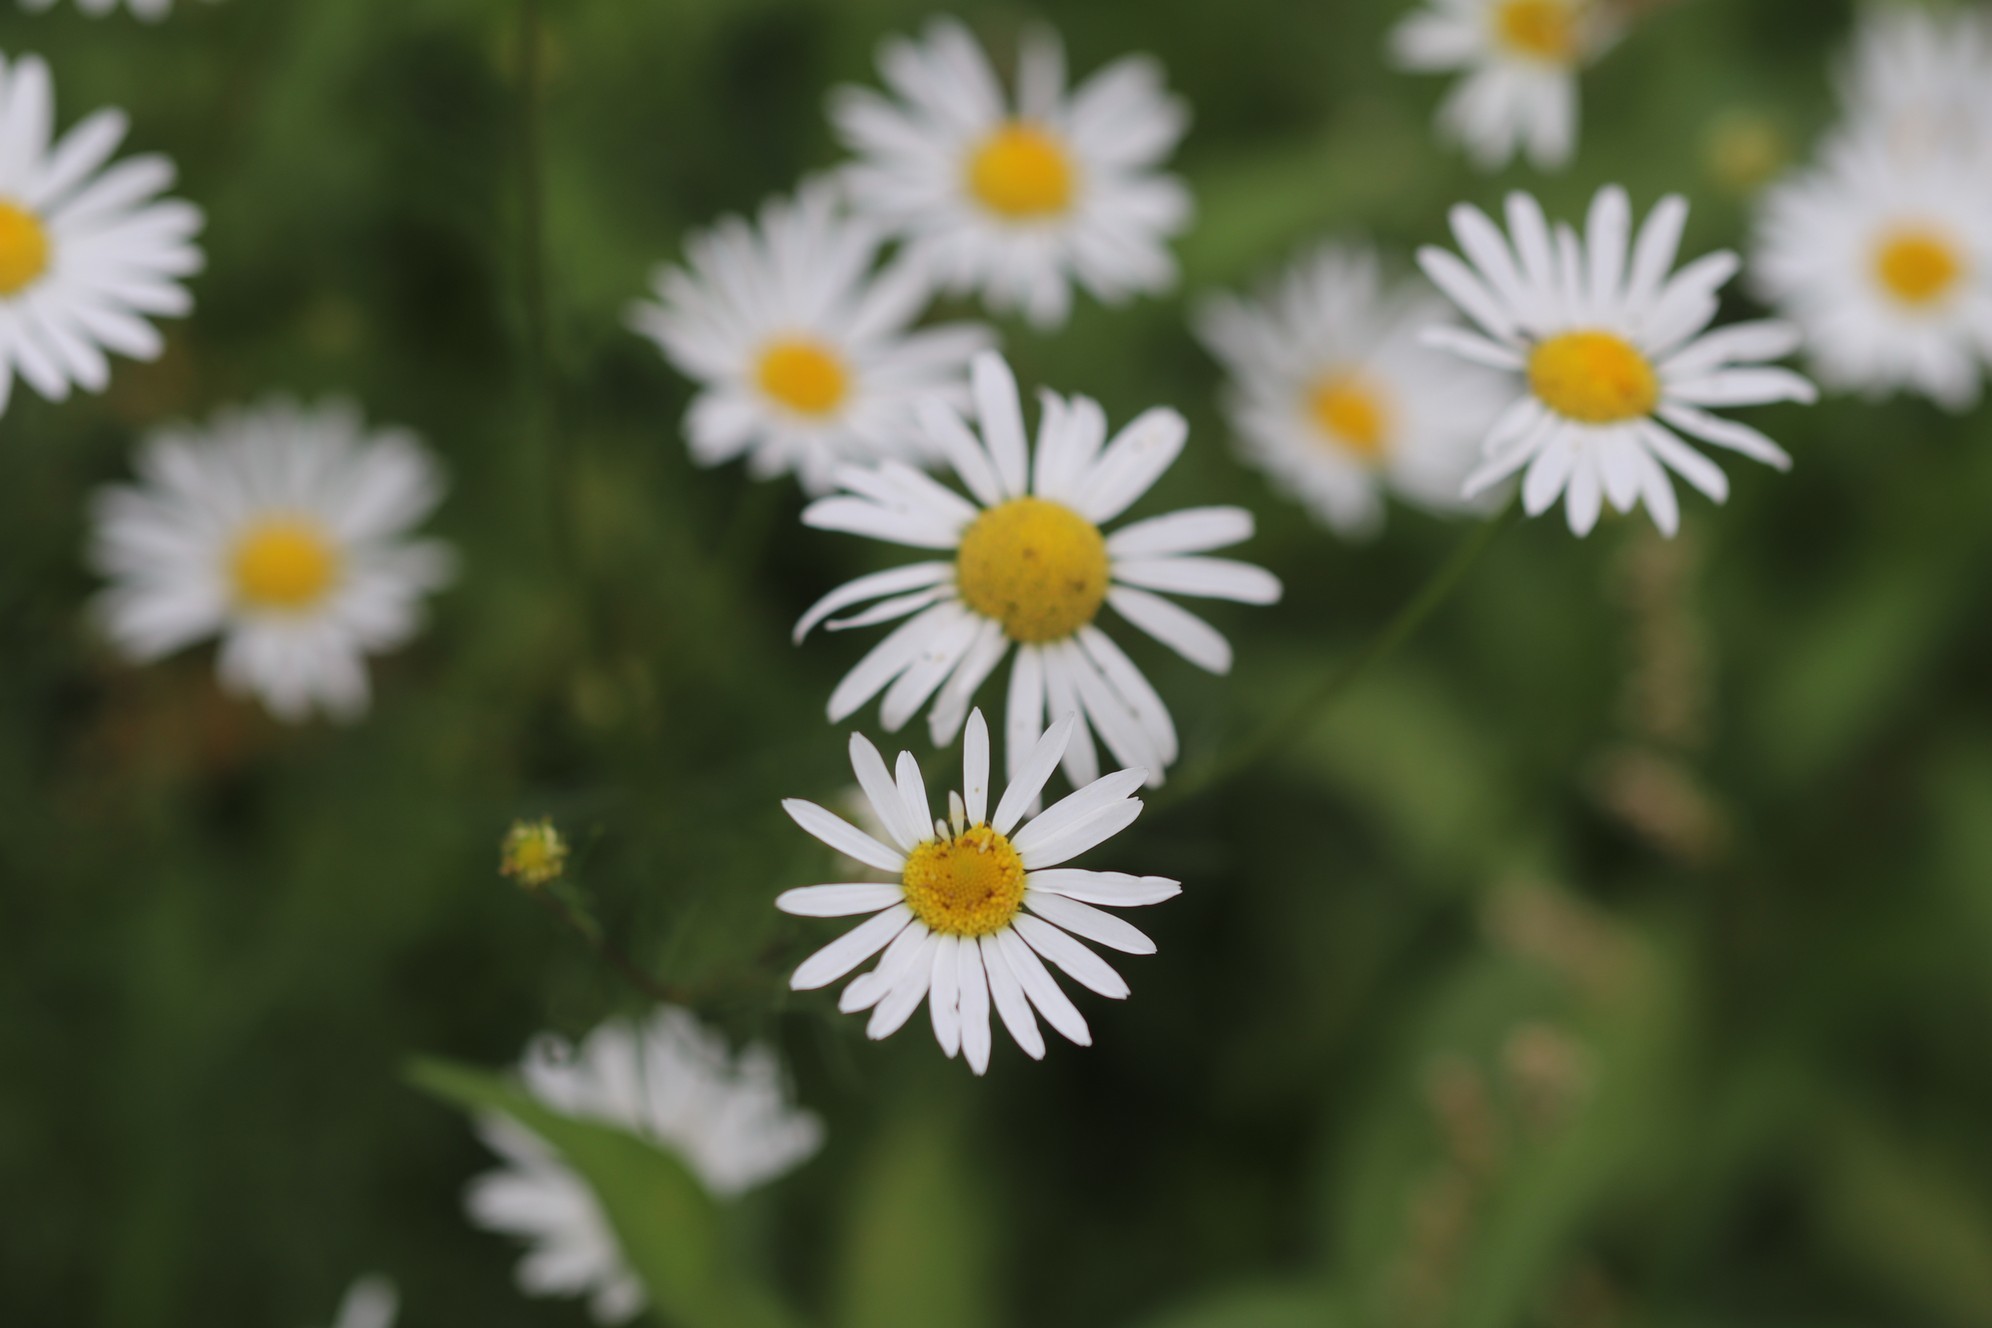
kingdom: Plantae
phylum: Tracheophyta
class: Magnoliopsida
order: Asterales
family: Asteraceae
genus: Tripleurospermum
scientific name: Tripleurospermum inodorum
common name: Scentless mayweed
